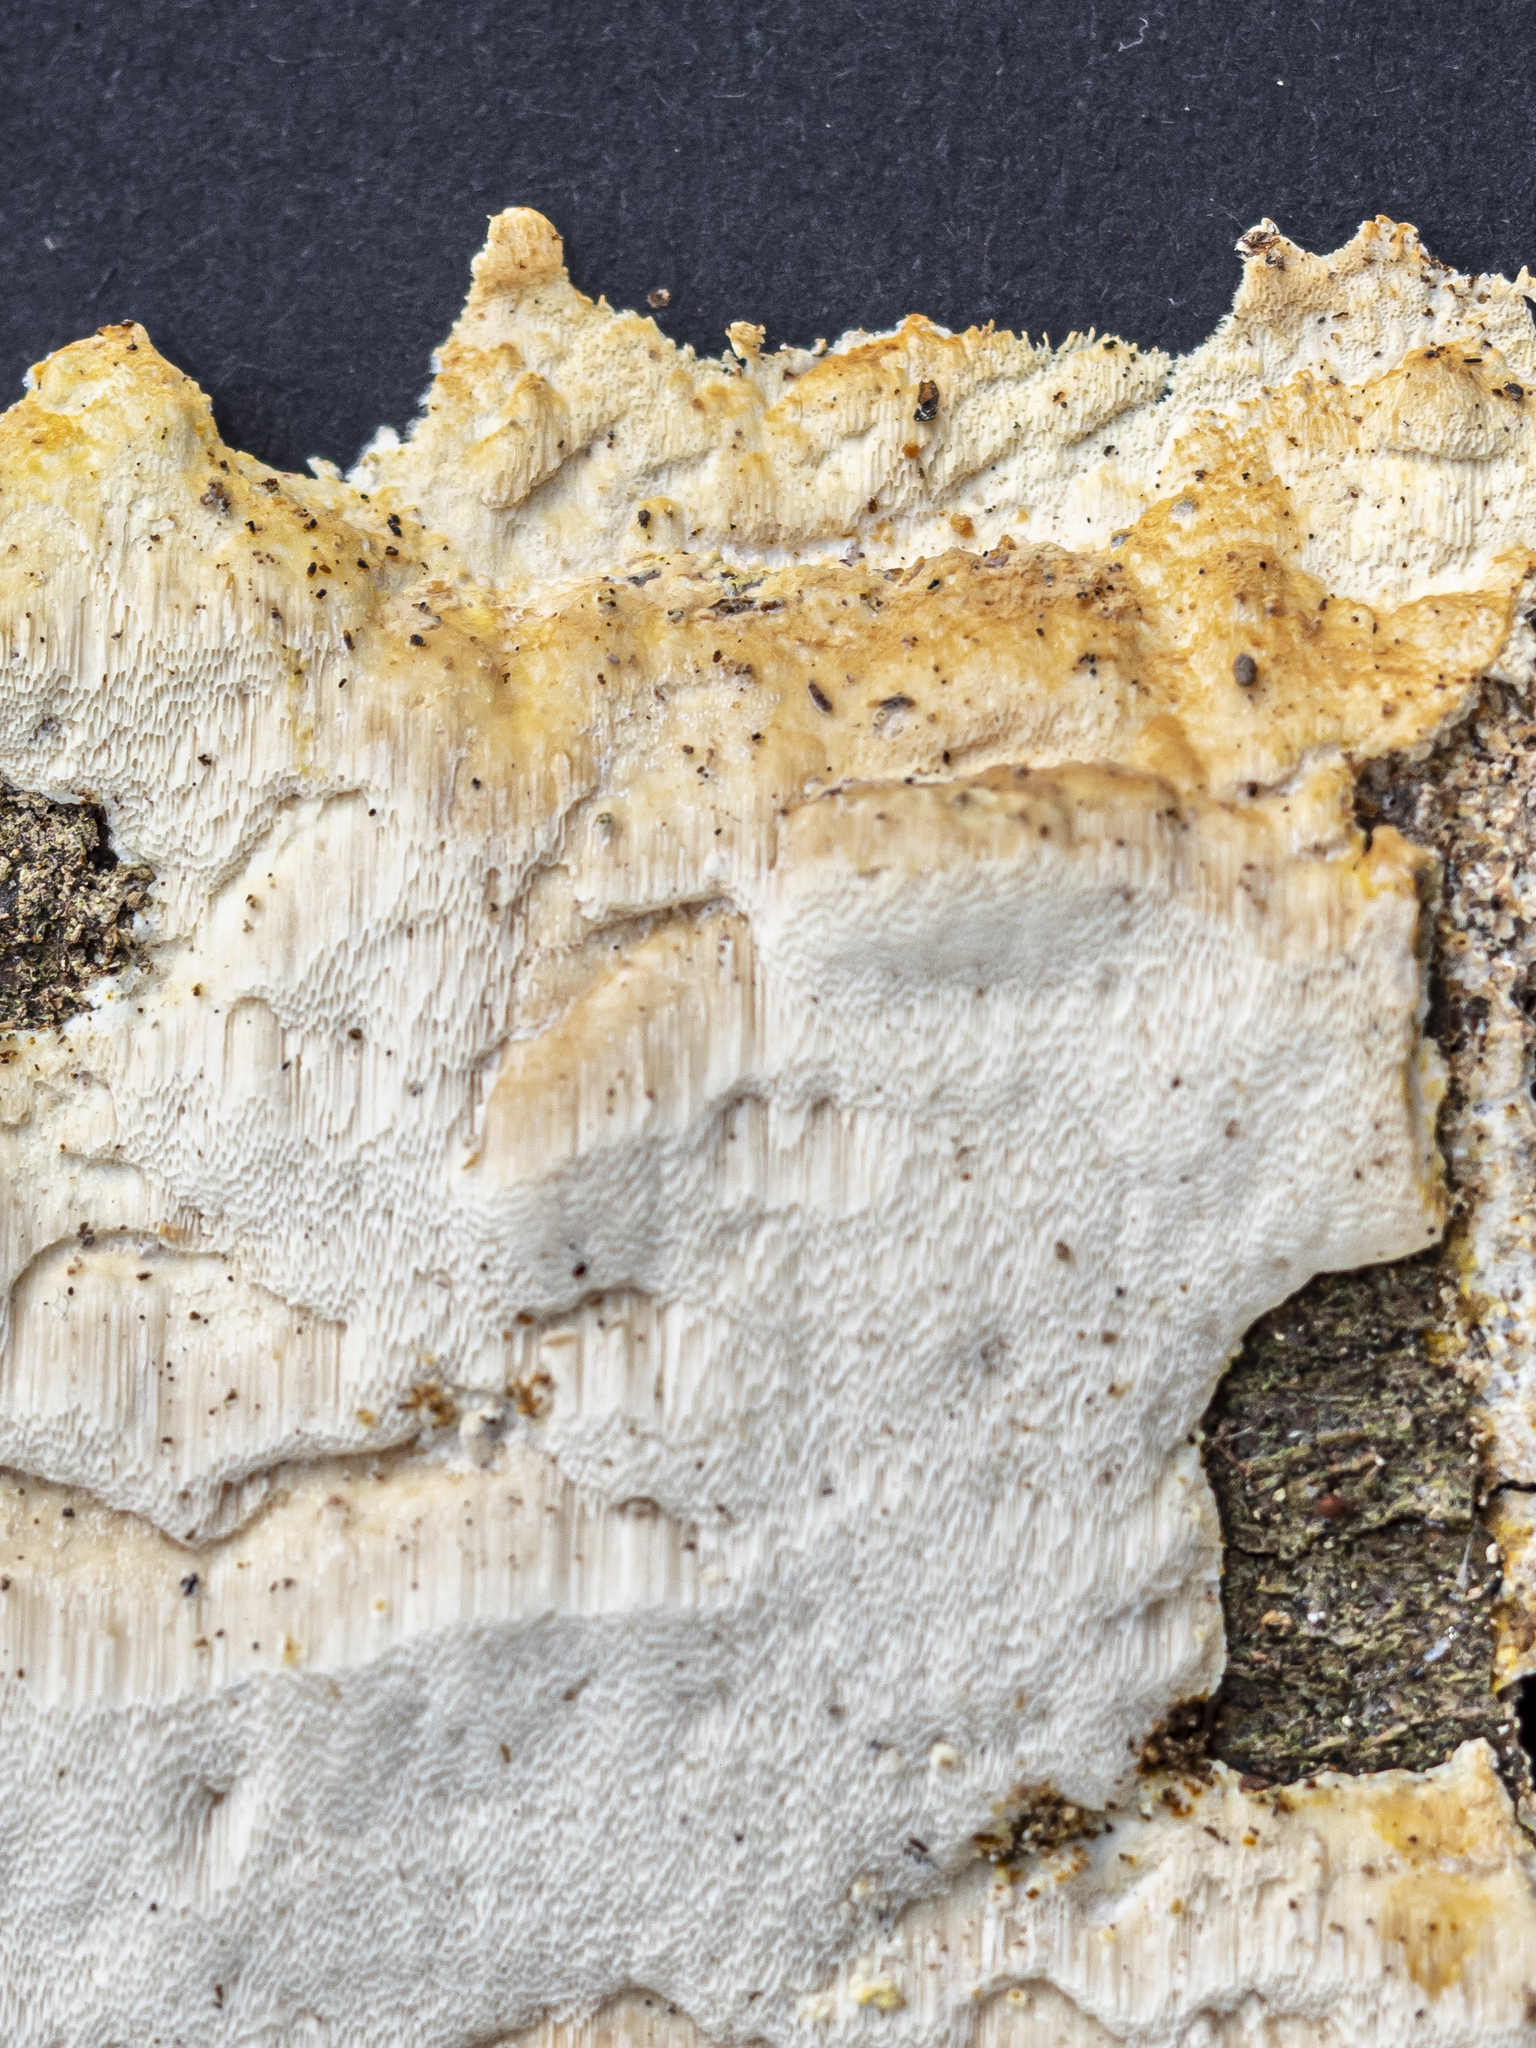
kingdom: Fungi
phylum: Basidiomycota
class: Agaricomycetes
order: Polyporales
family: Polyporaceae
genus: Yuchengia
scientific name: Yuchengia narymica
